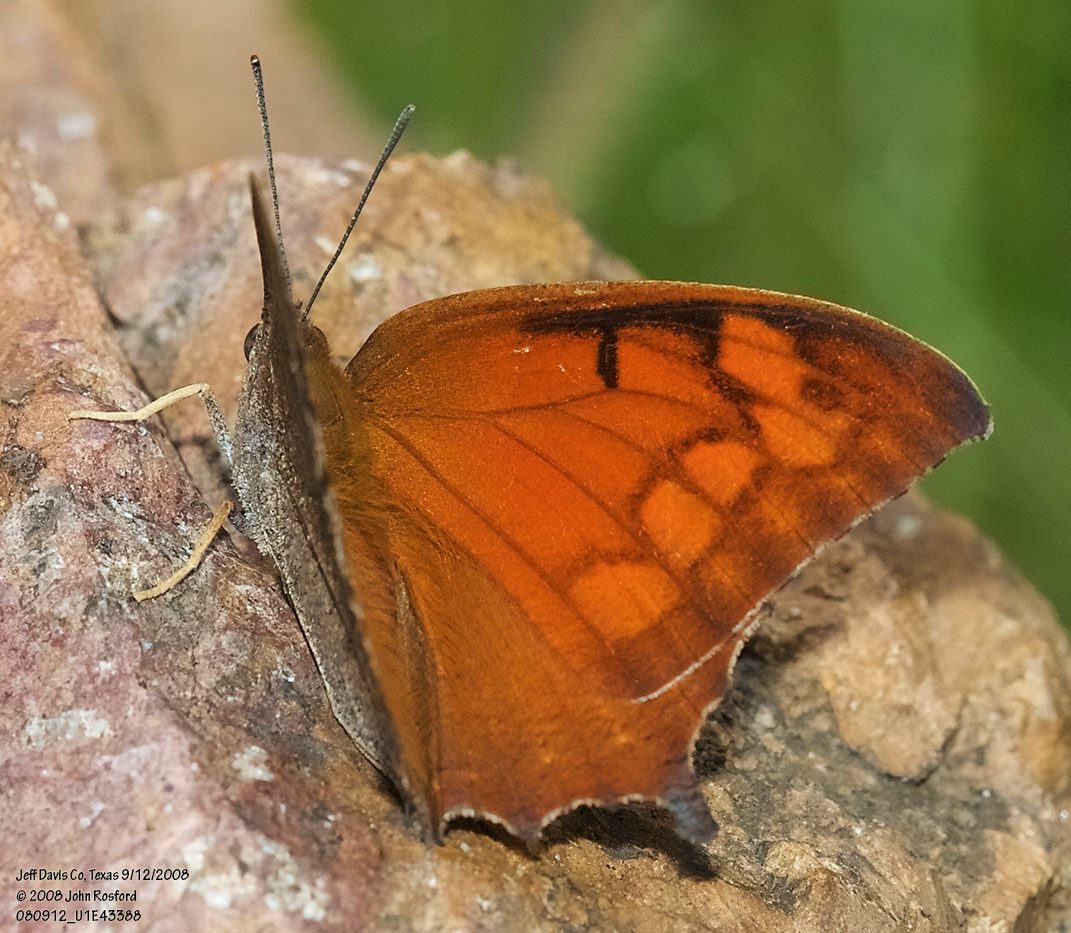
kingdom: Animalia
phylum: Arthropoda
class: Insecta
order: Lepidoptera
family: Nymphalidae
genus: Anaea
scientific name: Anaea aidea
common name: Tropical leafwing
